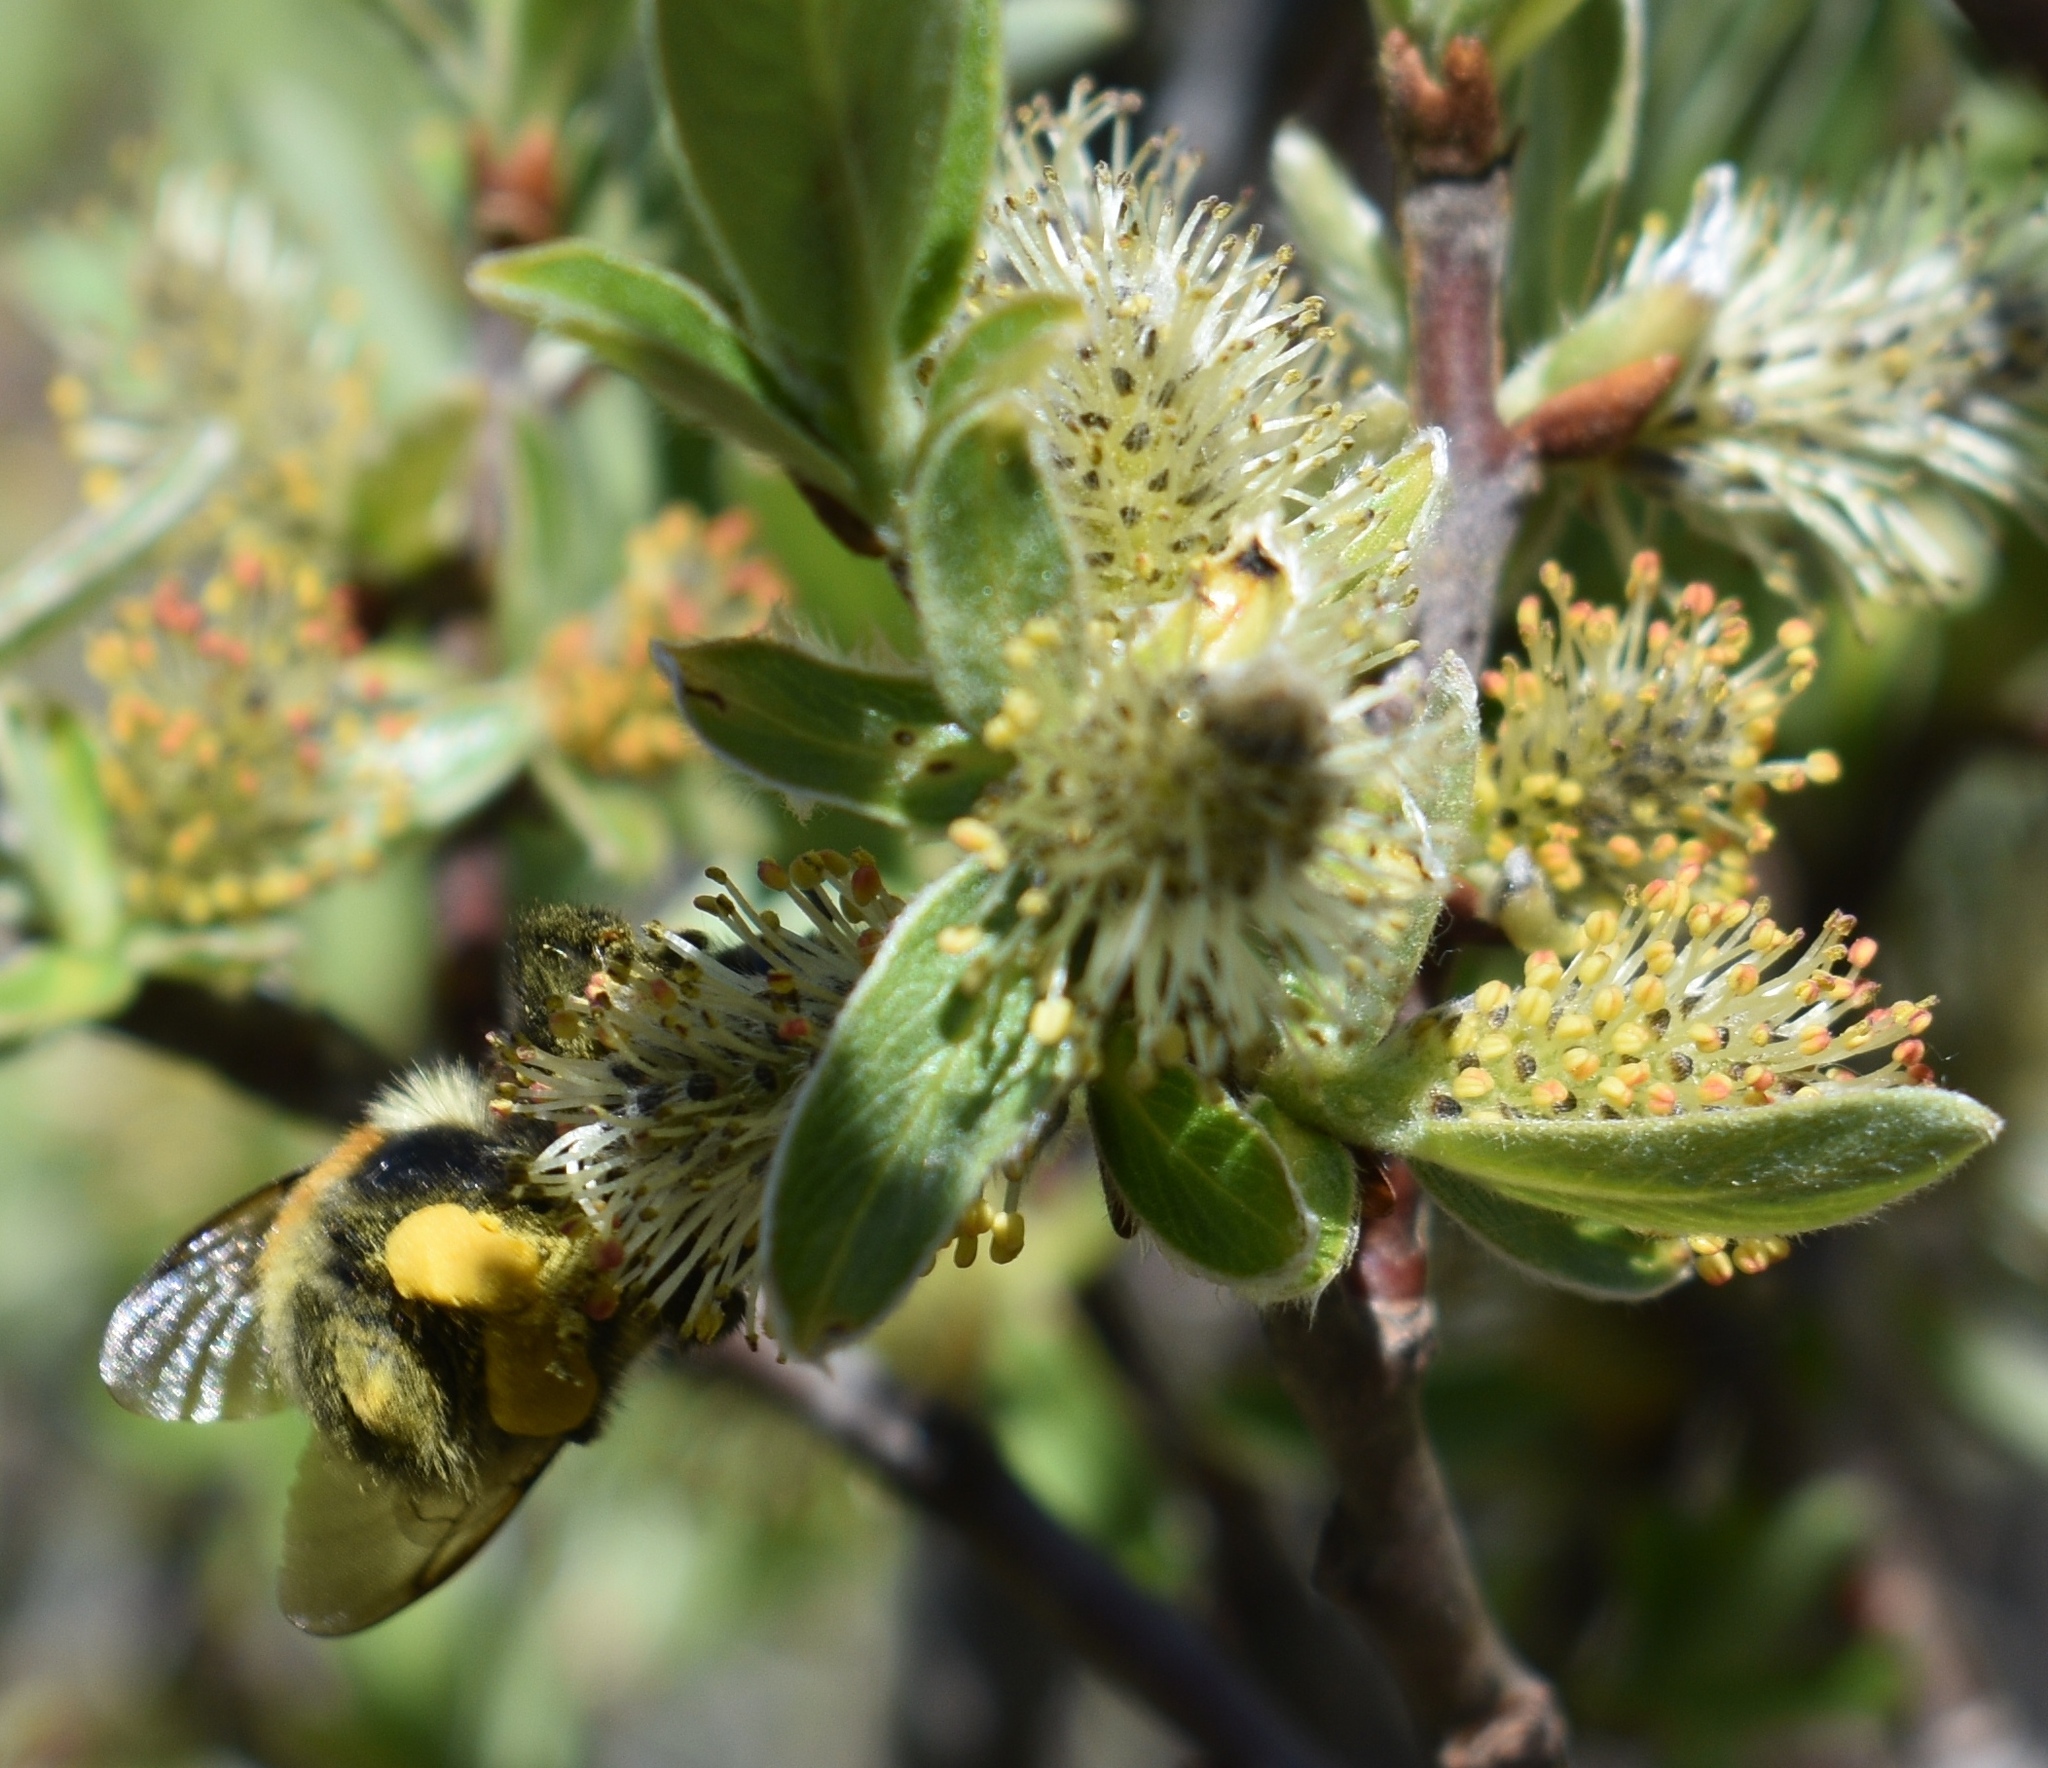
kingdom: Animalia
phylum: Arthropoda
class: Insecta
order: Hymenoptera
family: Apidae
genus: Bombus
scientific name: Bombus bifarius
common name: Two form bumble bee
